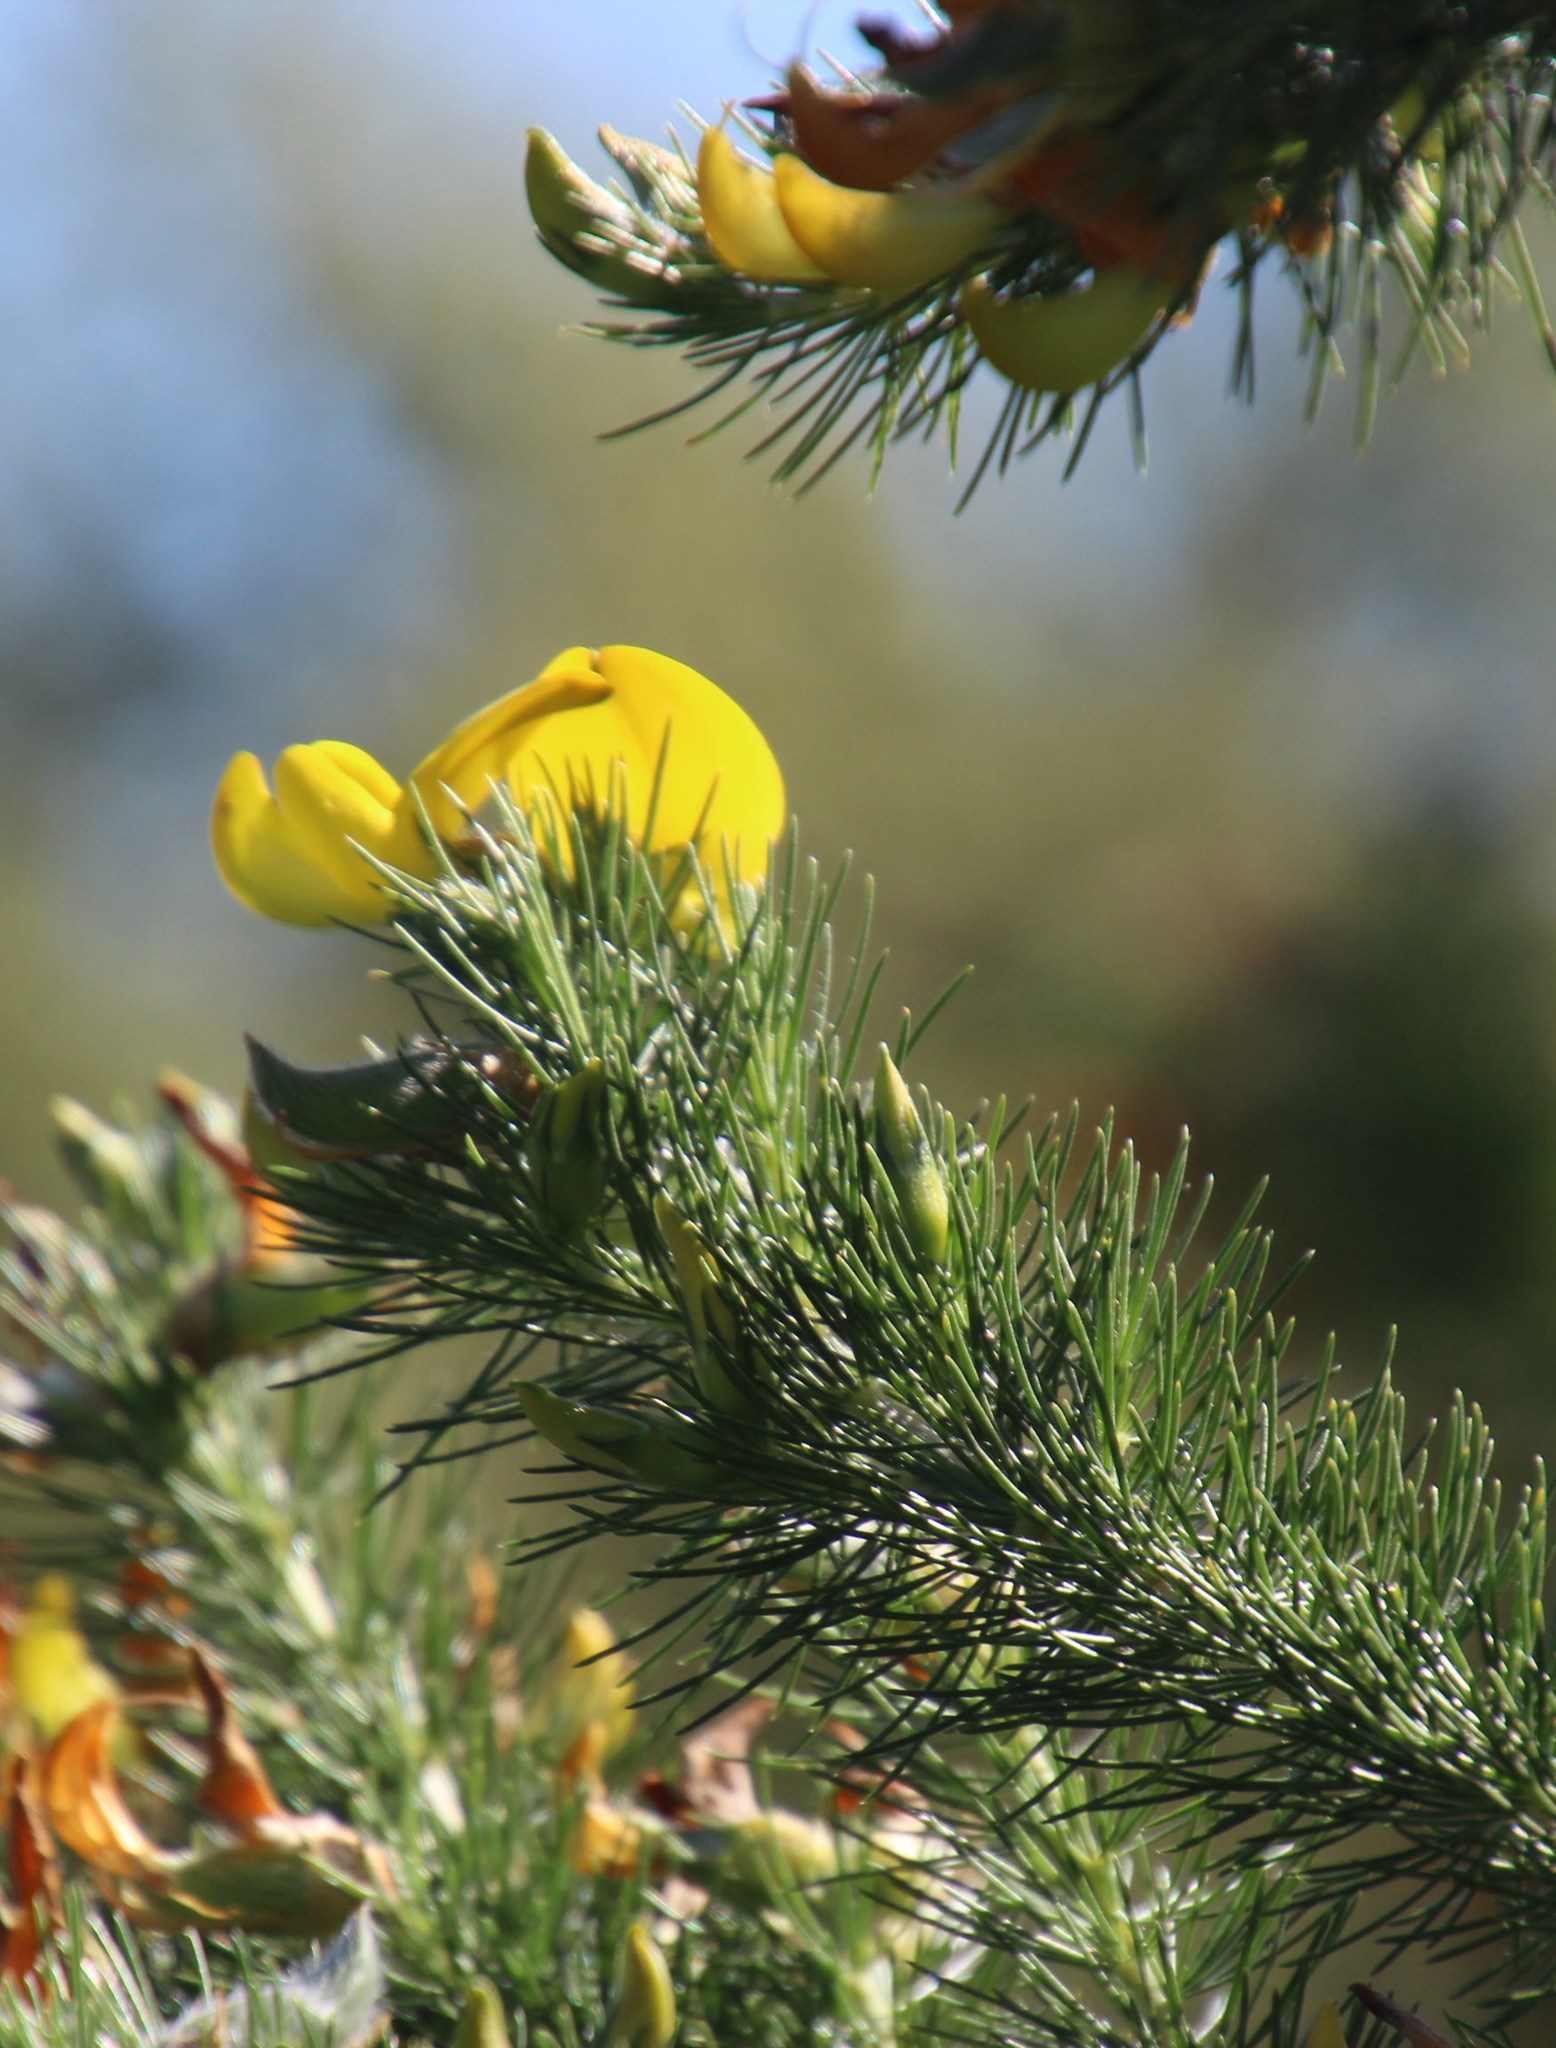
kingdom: Plantae
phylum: Tracheophyta
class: Magnoliopsida
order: Fabales
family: Fabaceae
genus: Aspalathus
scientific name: Aspalathus macrantha
